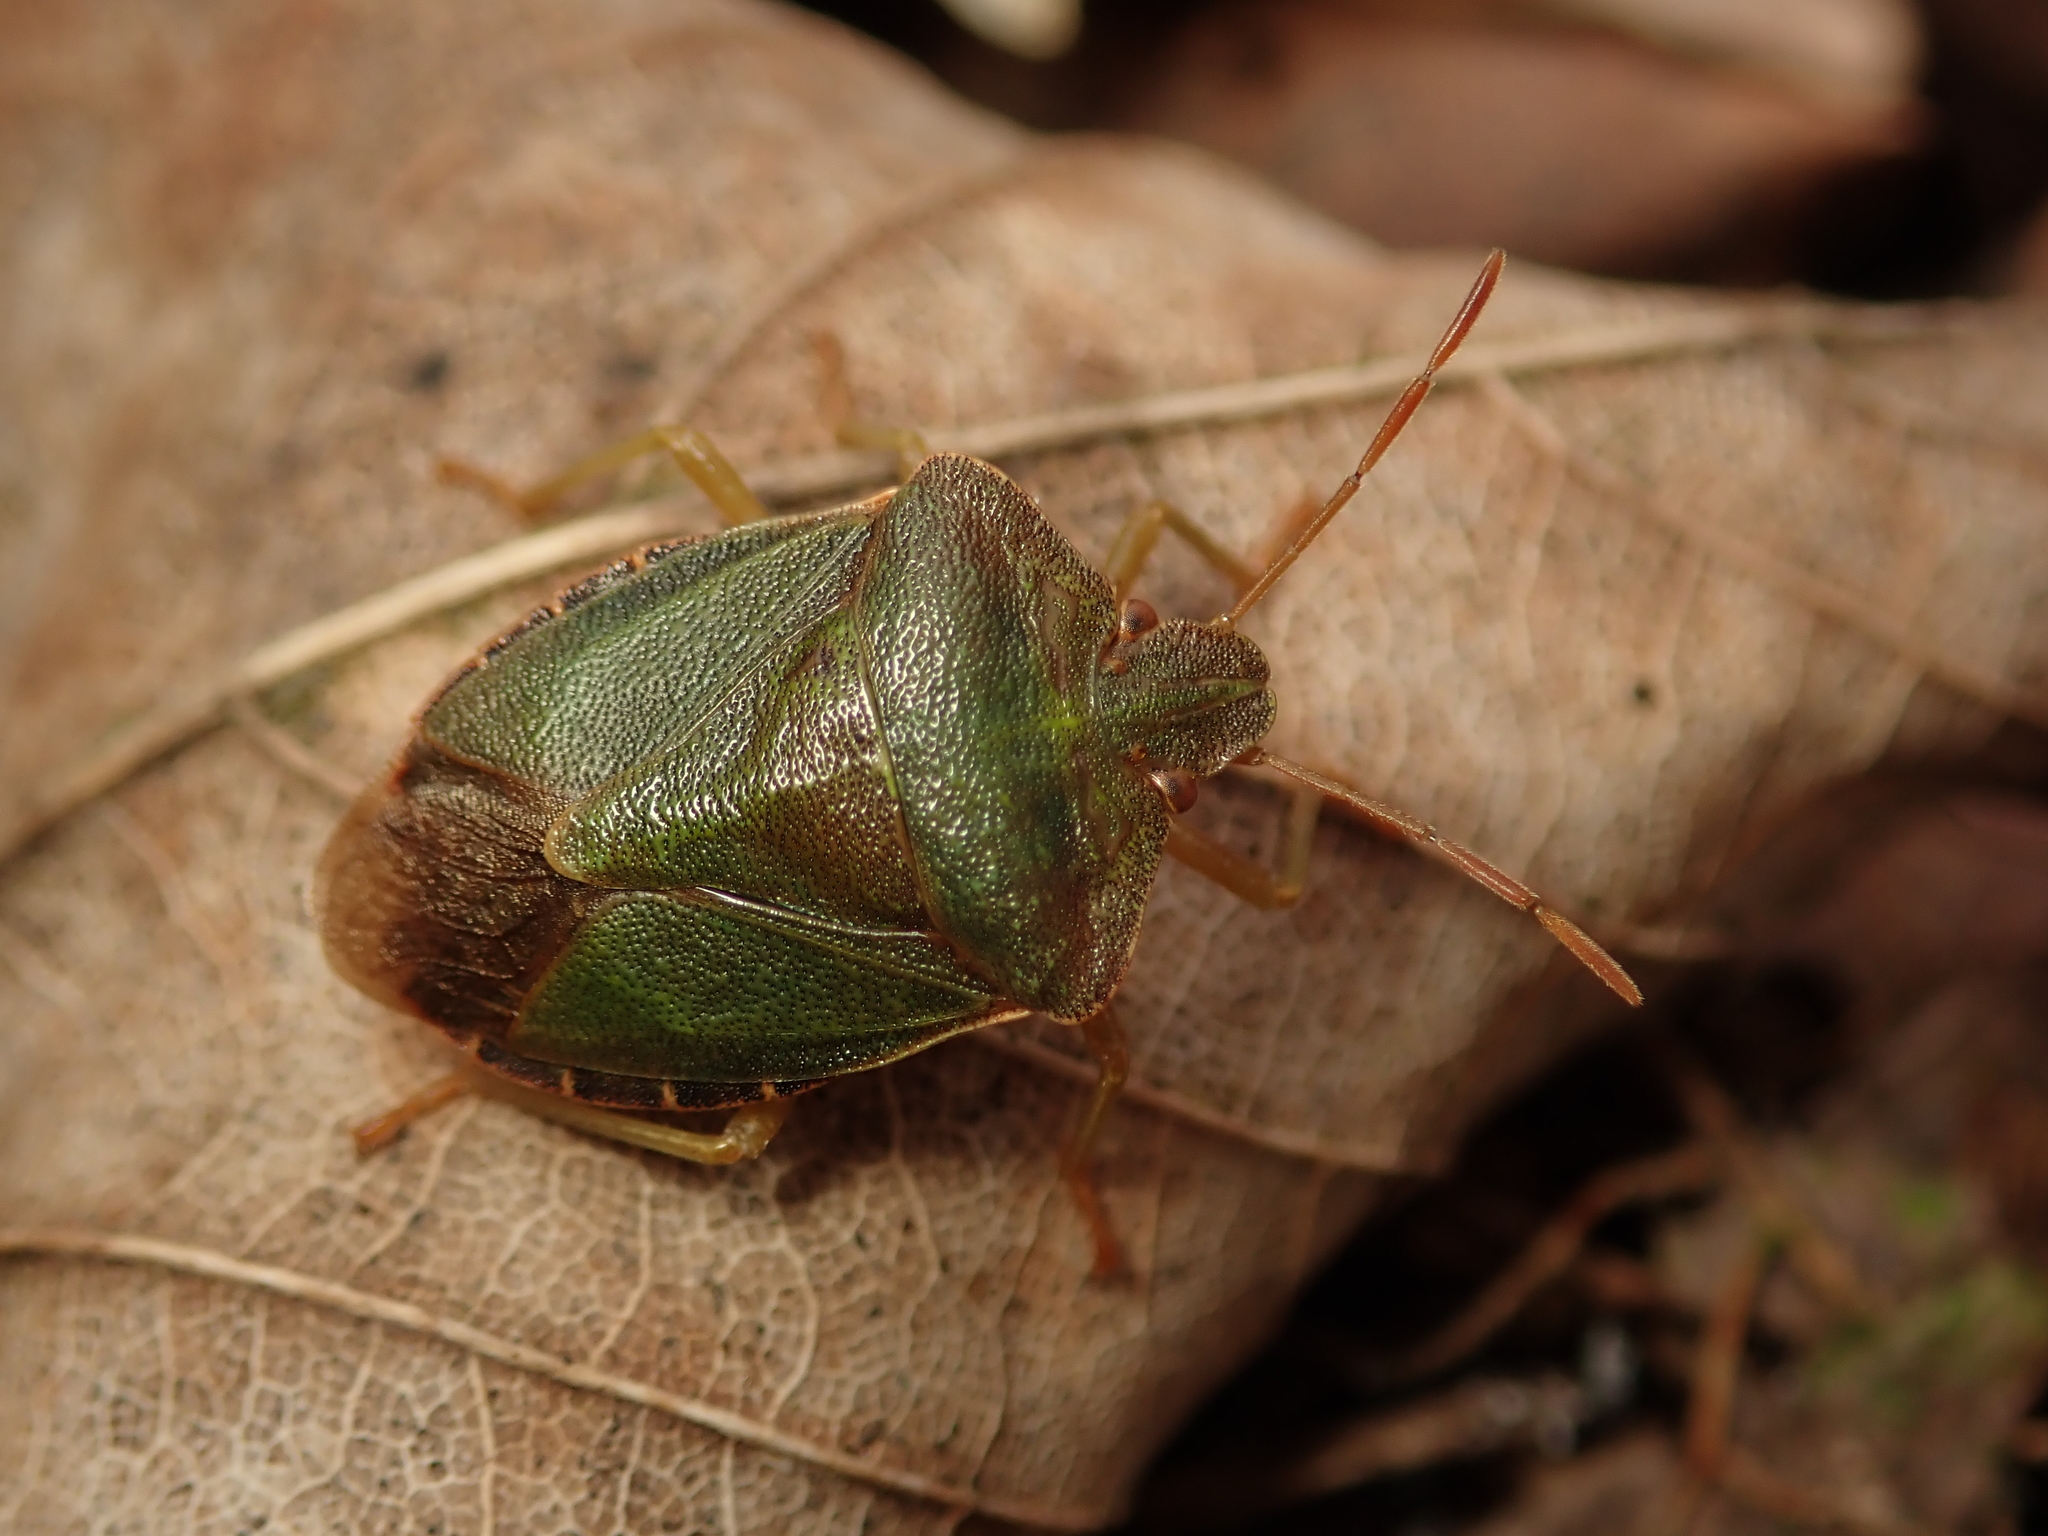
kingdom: Animalia
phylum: Arthropoda
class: Insecta
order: Hemiptera
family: Pentatomidae
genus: Palomena
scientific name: Palomena prasina
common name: Green shieldbug
